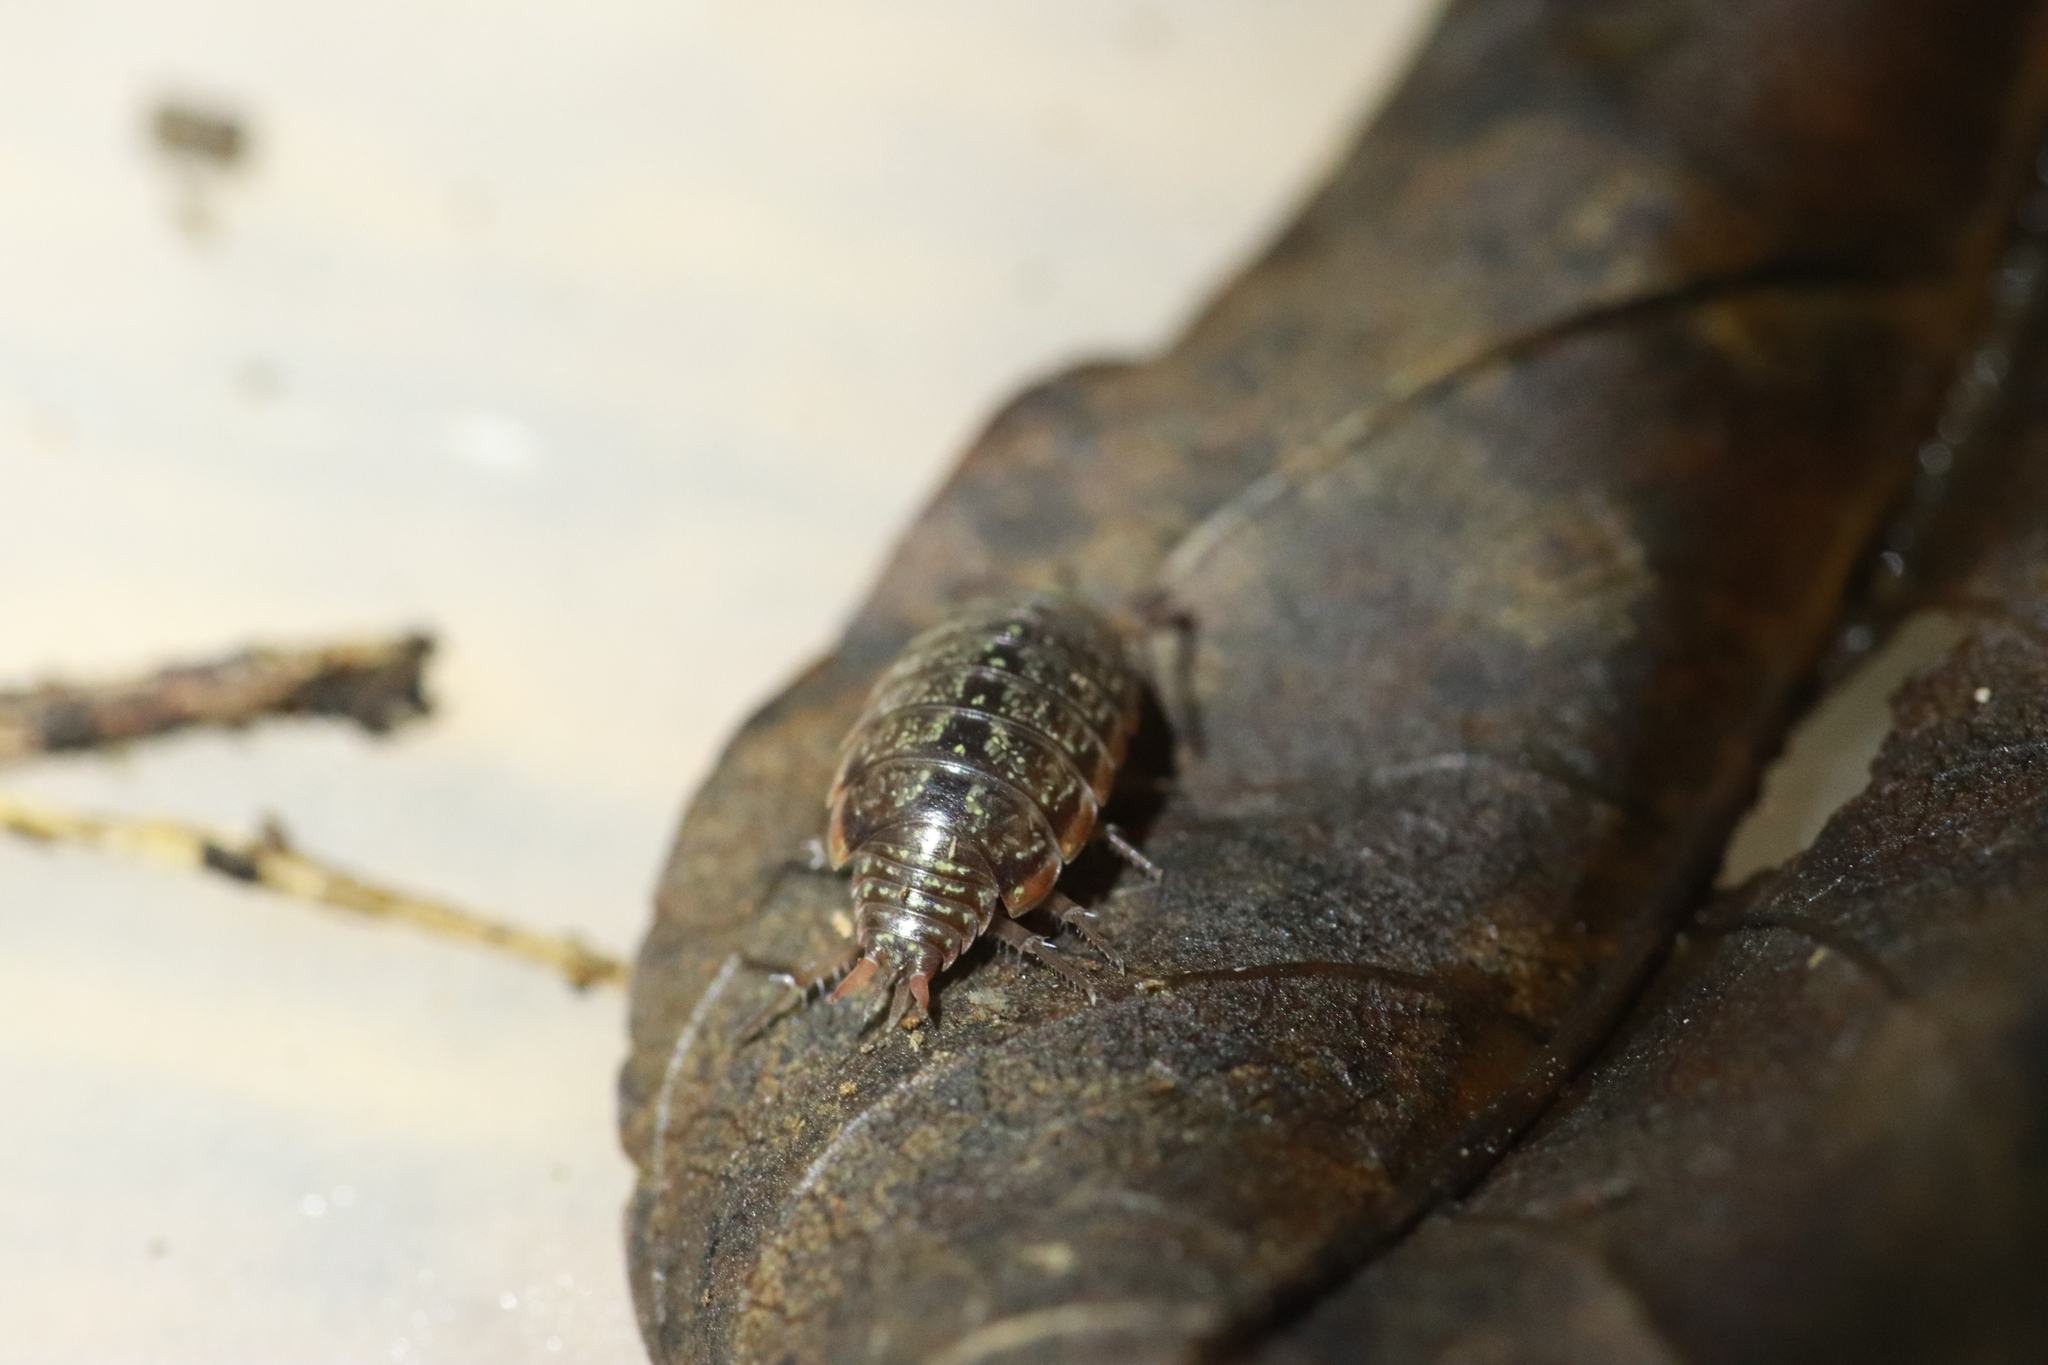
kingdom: Animalia
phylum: Arthropoda
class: Malacostraca
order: Isopoda
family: Philosciidae
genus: Philoscia
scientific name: Philoscia muscorum
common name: Common striped woodlouse
